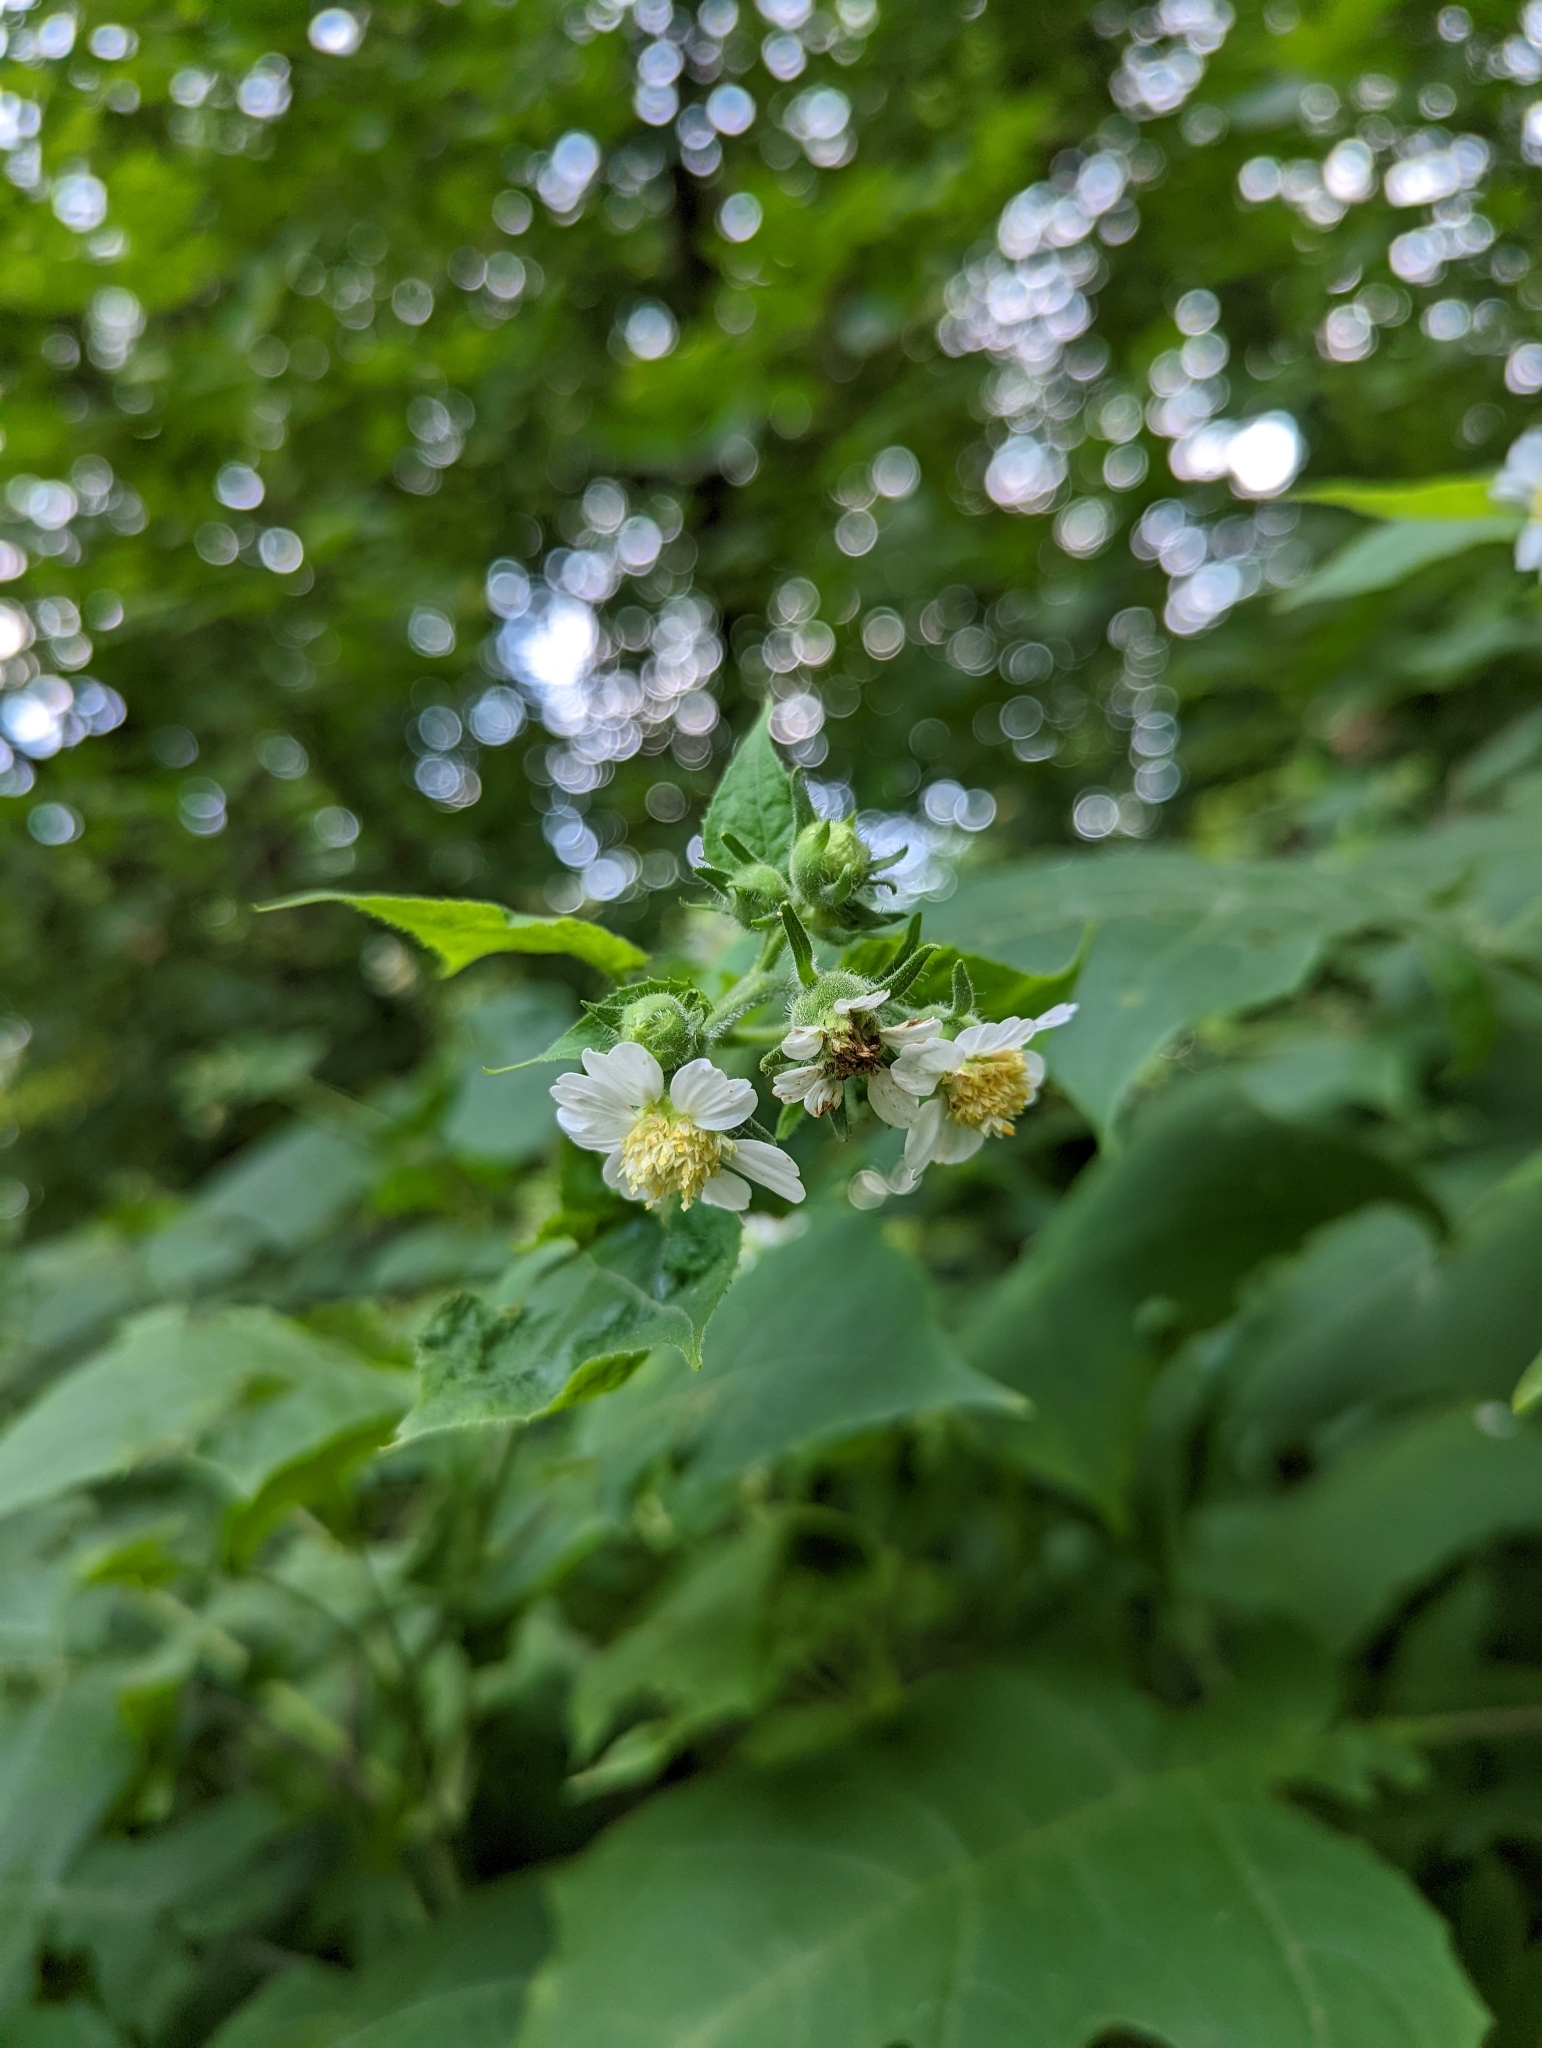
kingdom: Plantae
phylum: Tracheophyta
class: Magnoliopsida
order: Asterales
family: Asteraceae
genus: Polymnia
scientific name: Polymnia canadensis
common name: Pale-flowered leafcup
